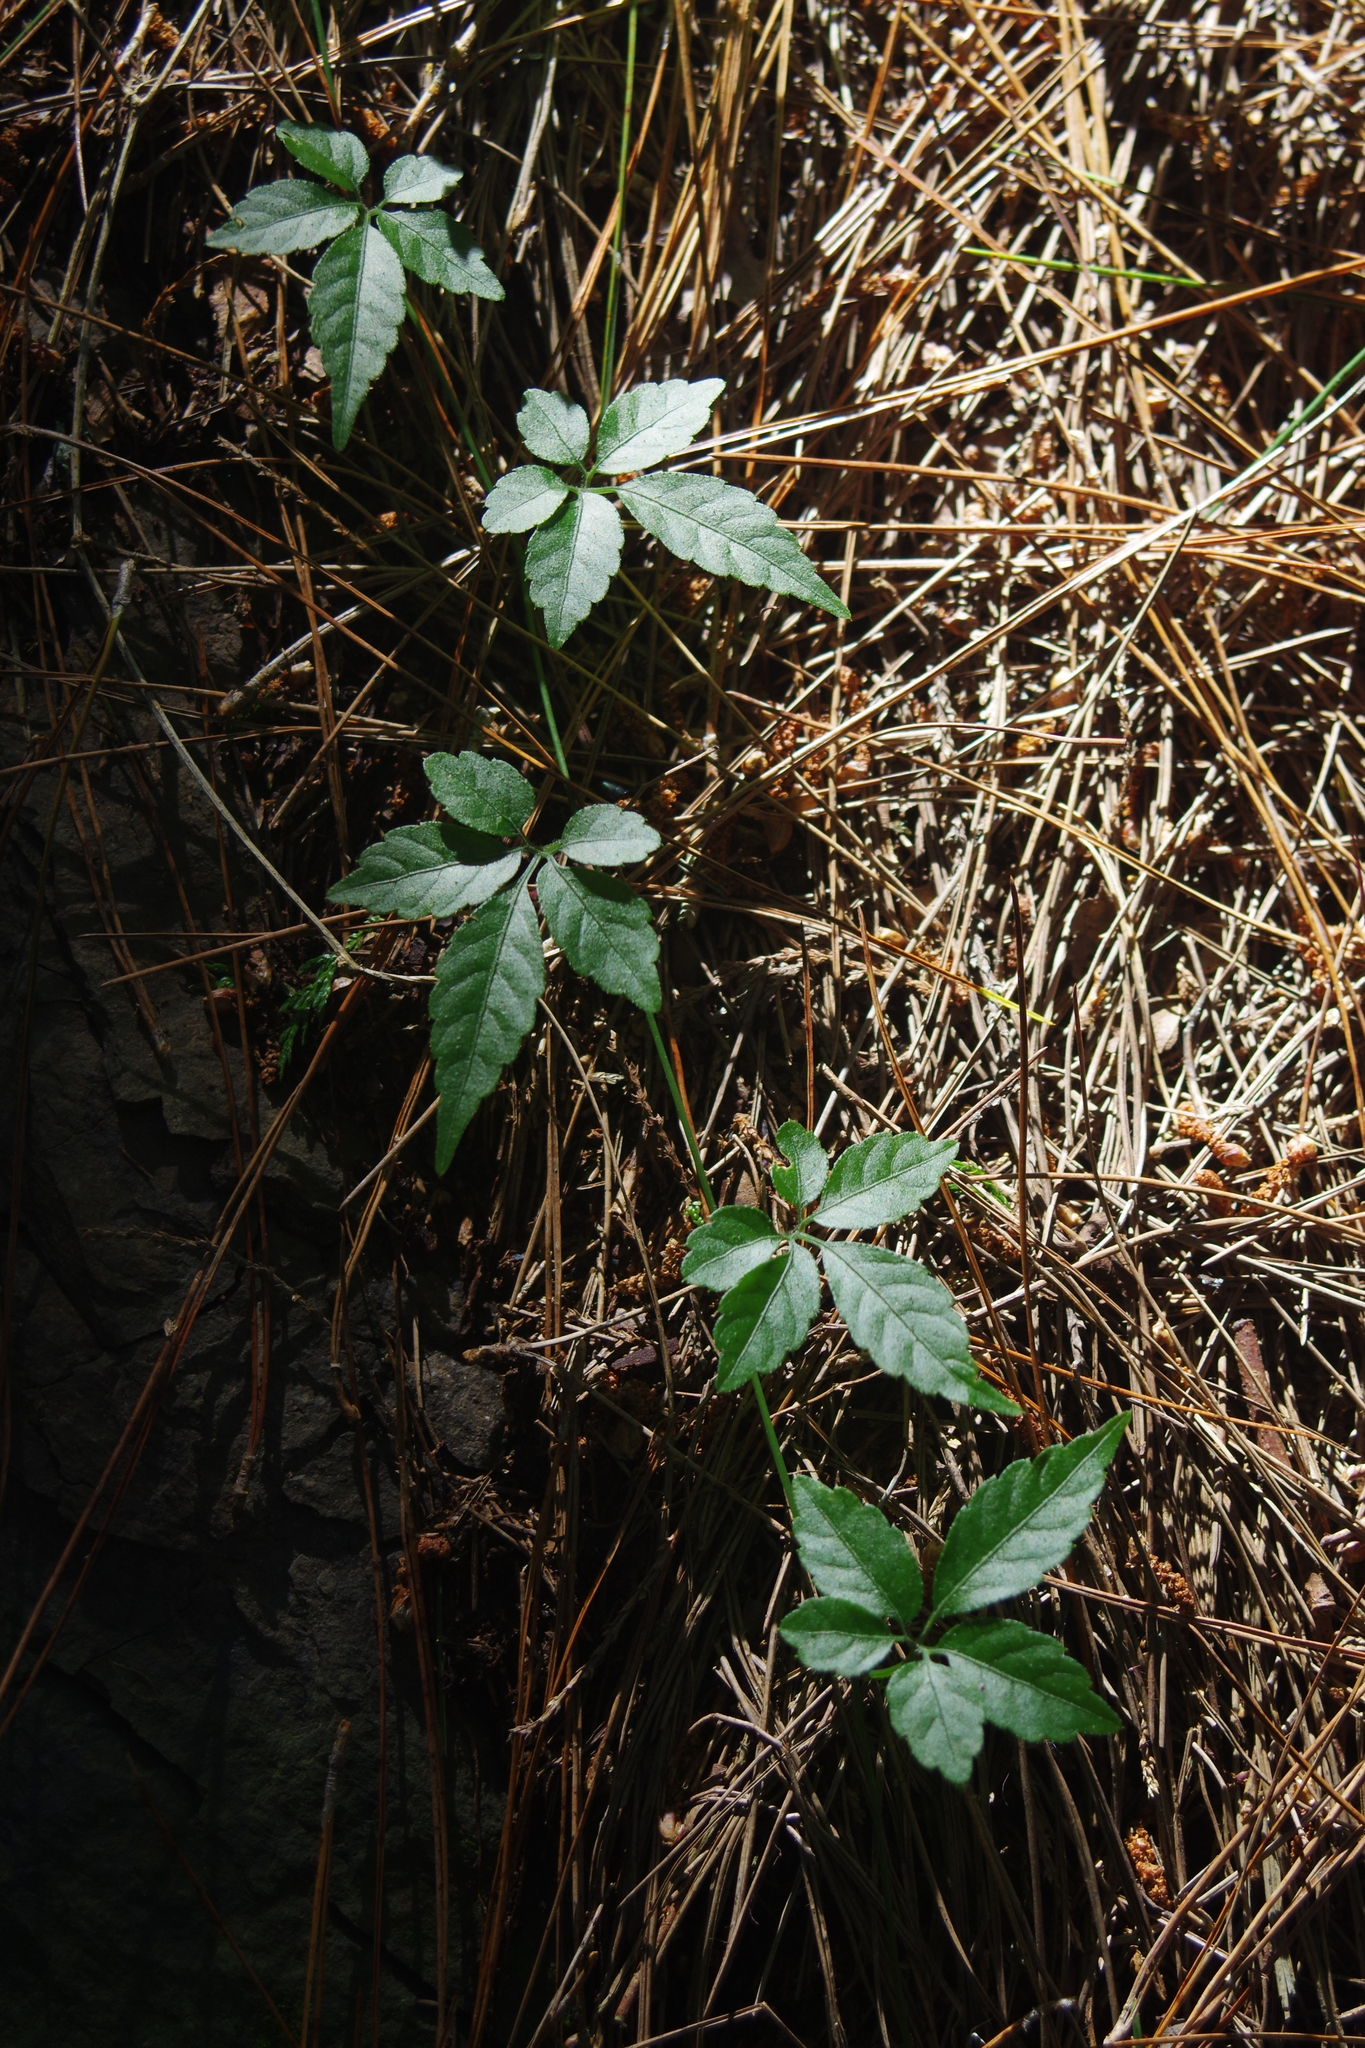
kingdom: Plantae
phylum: Tracheophyta
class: Magnoliopsida
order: Cucurbitales
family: Cucurbitaceae
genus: Gynostemma
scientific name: Gynostemma pentaphyllum
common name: Gynostemma
